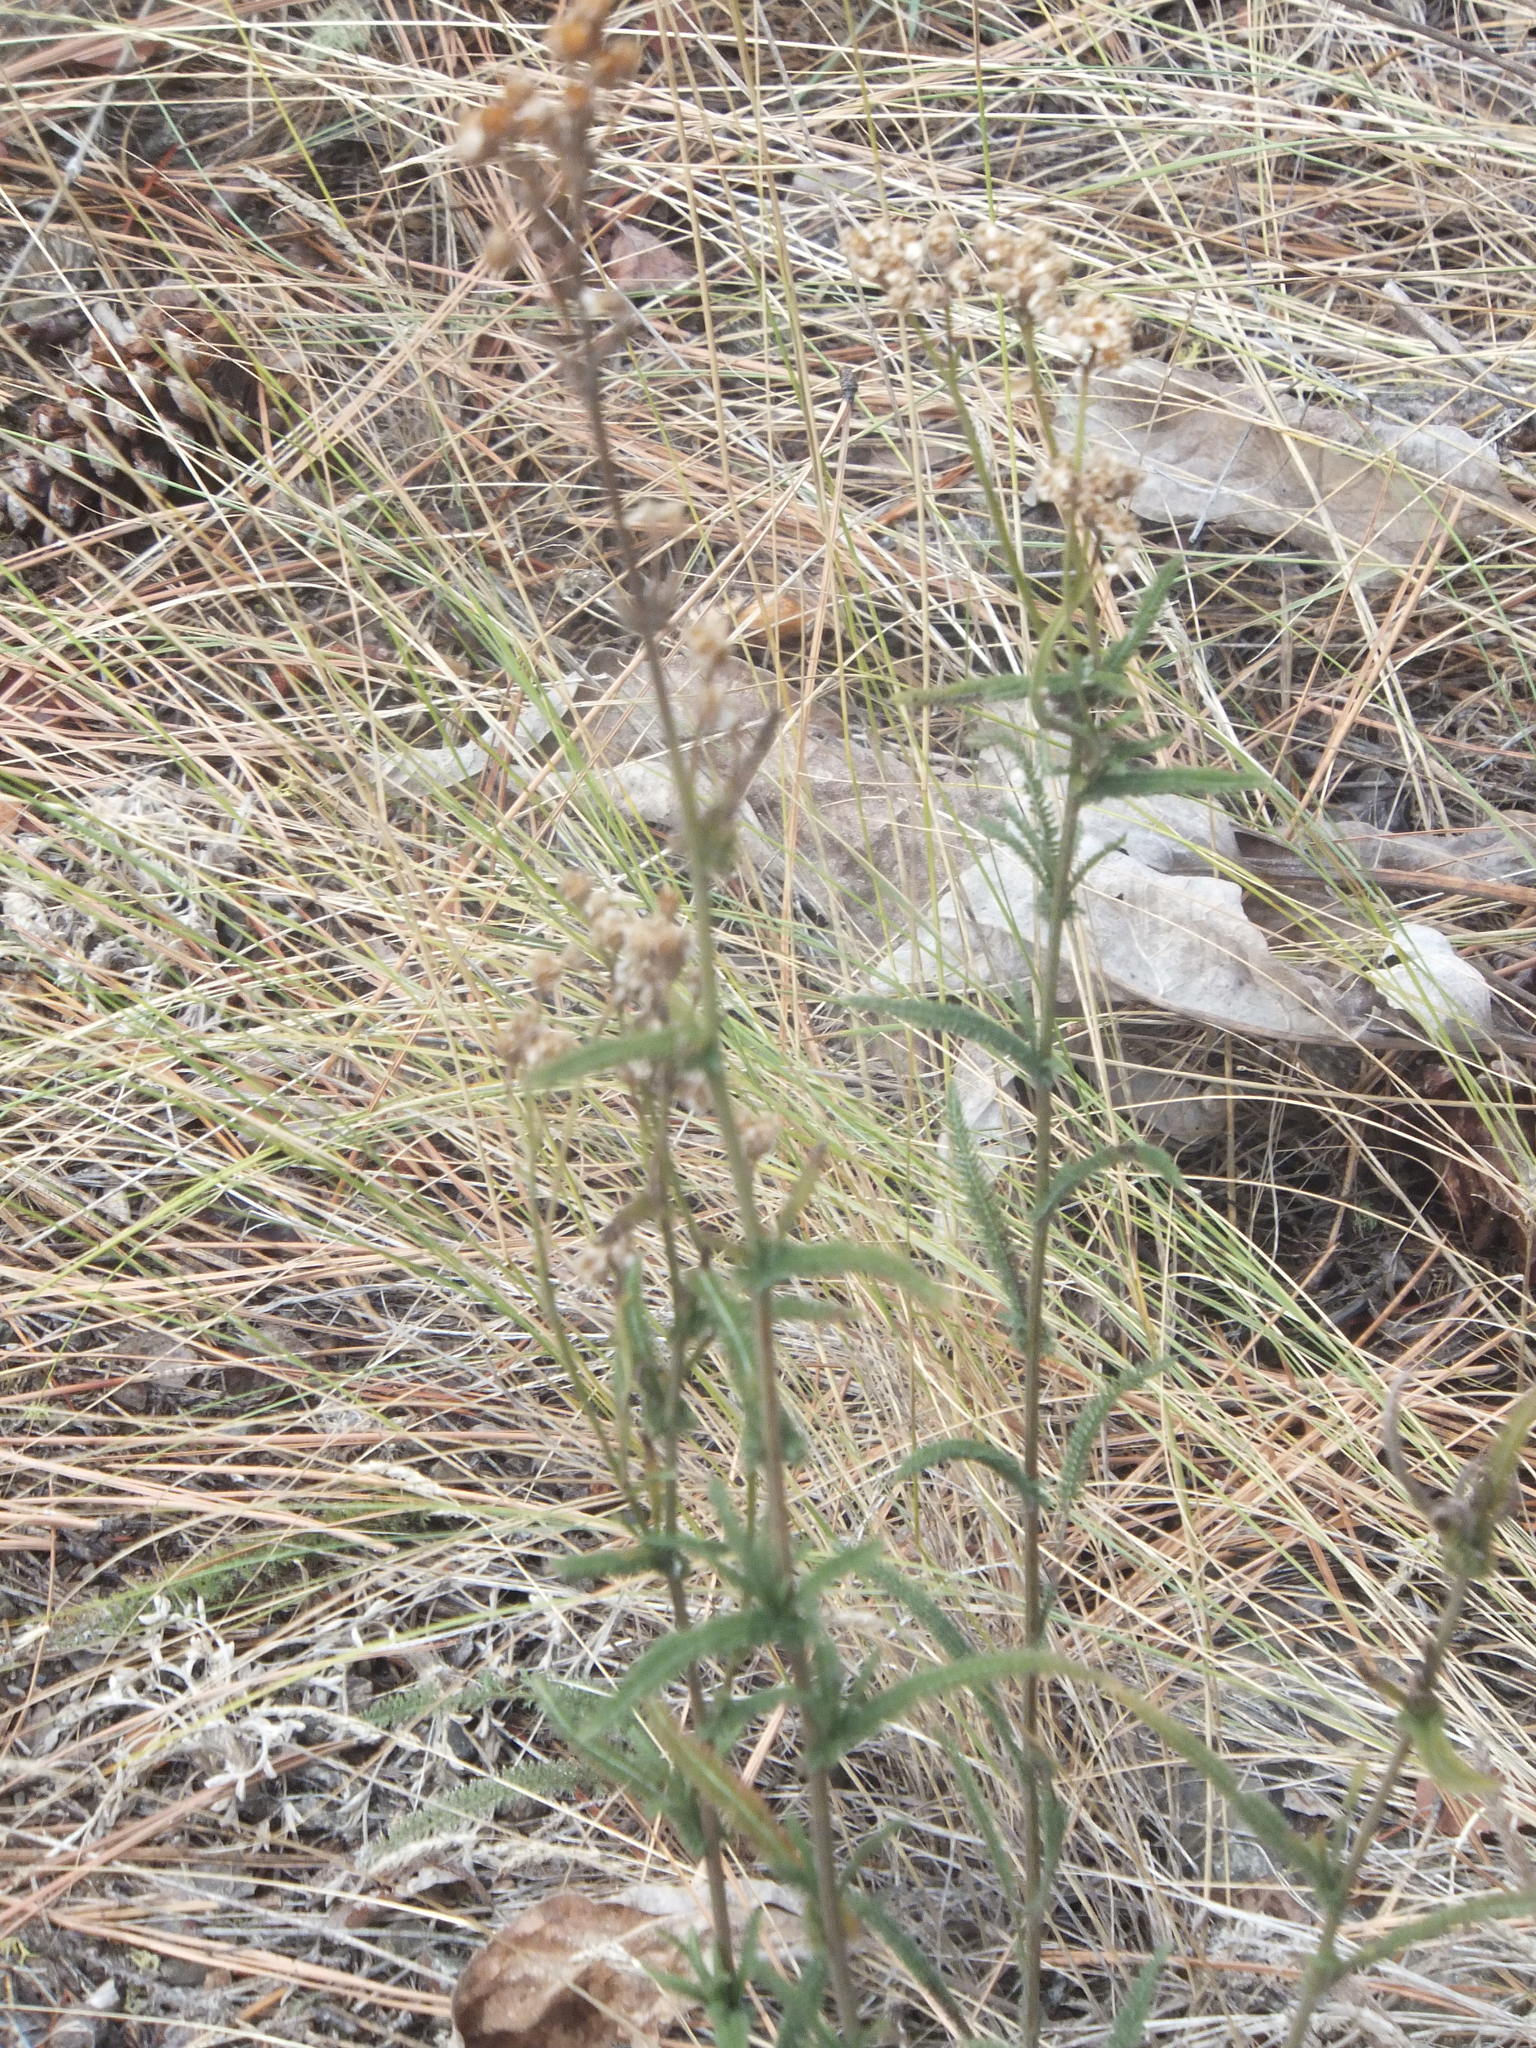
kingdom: Plantae
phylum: Tracheophyta
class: Magnoliopsida
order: Asterales
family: Asteraceae
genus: Achillea
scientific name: Achillea millefolium
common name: Yarrow
